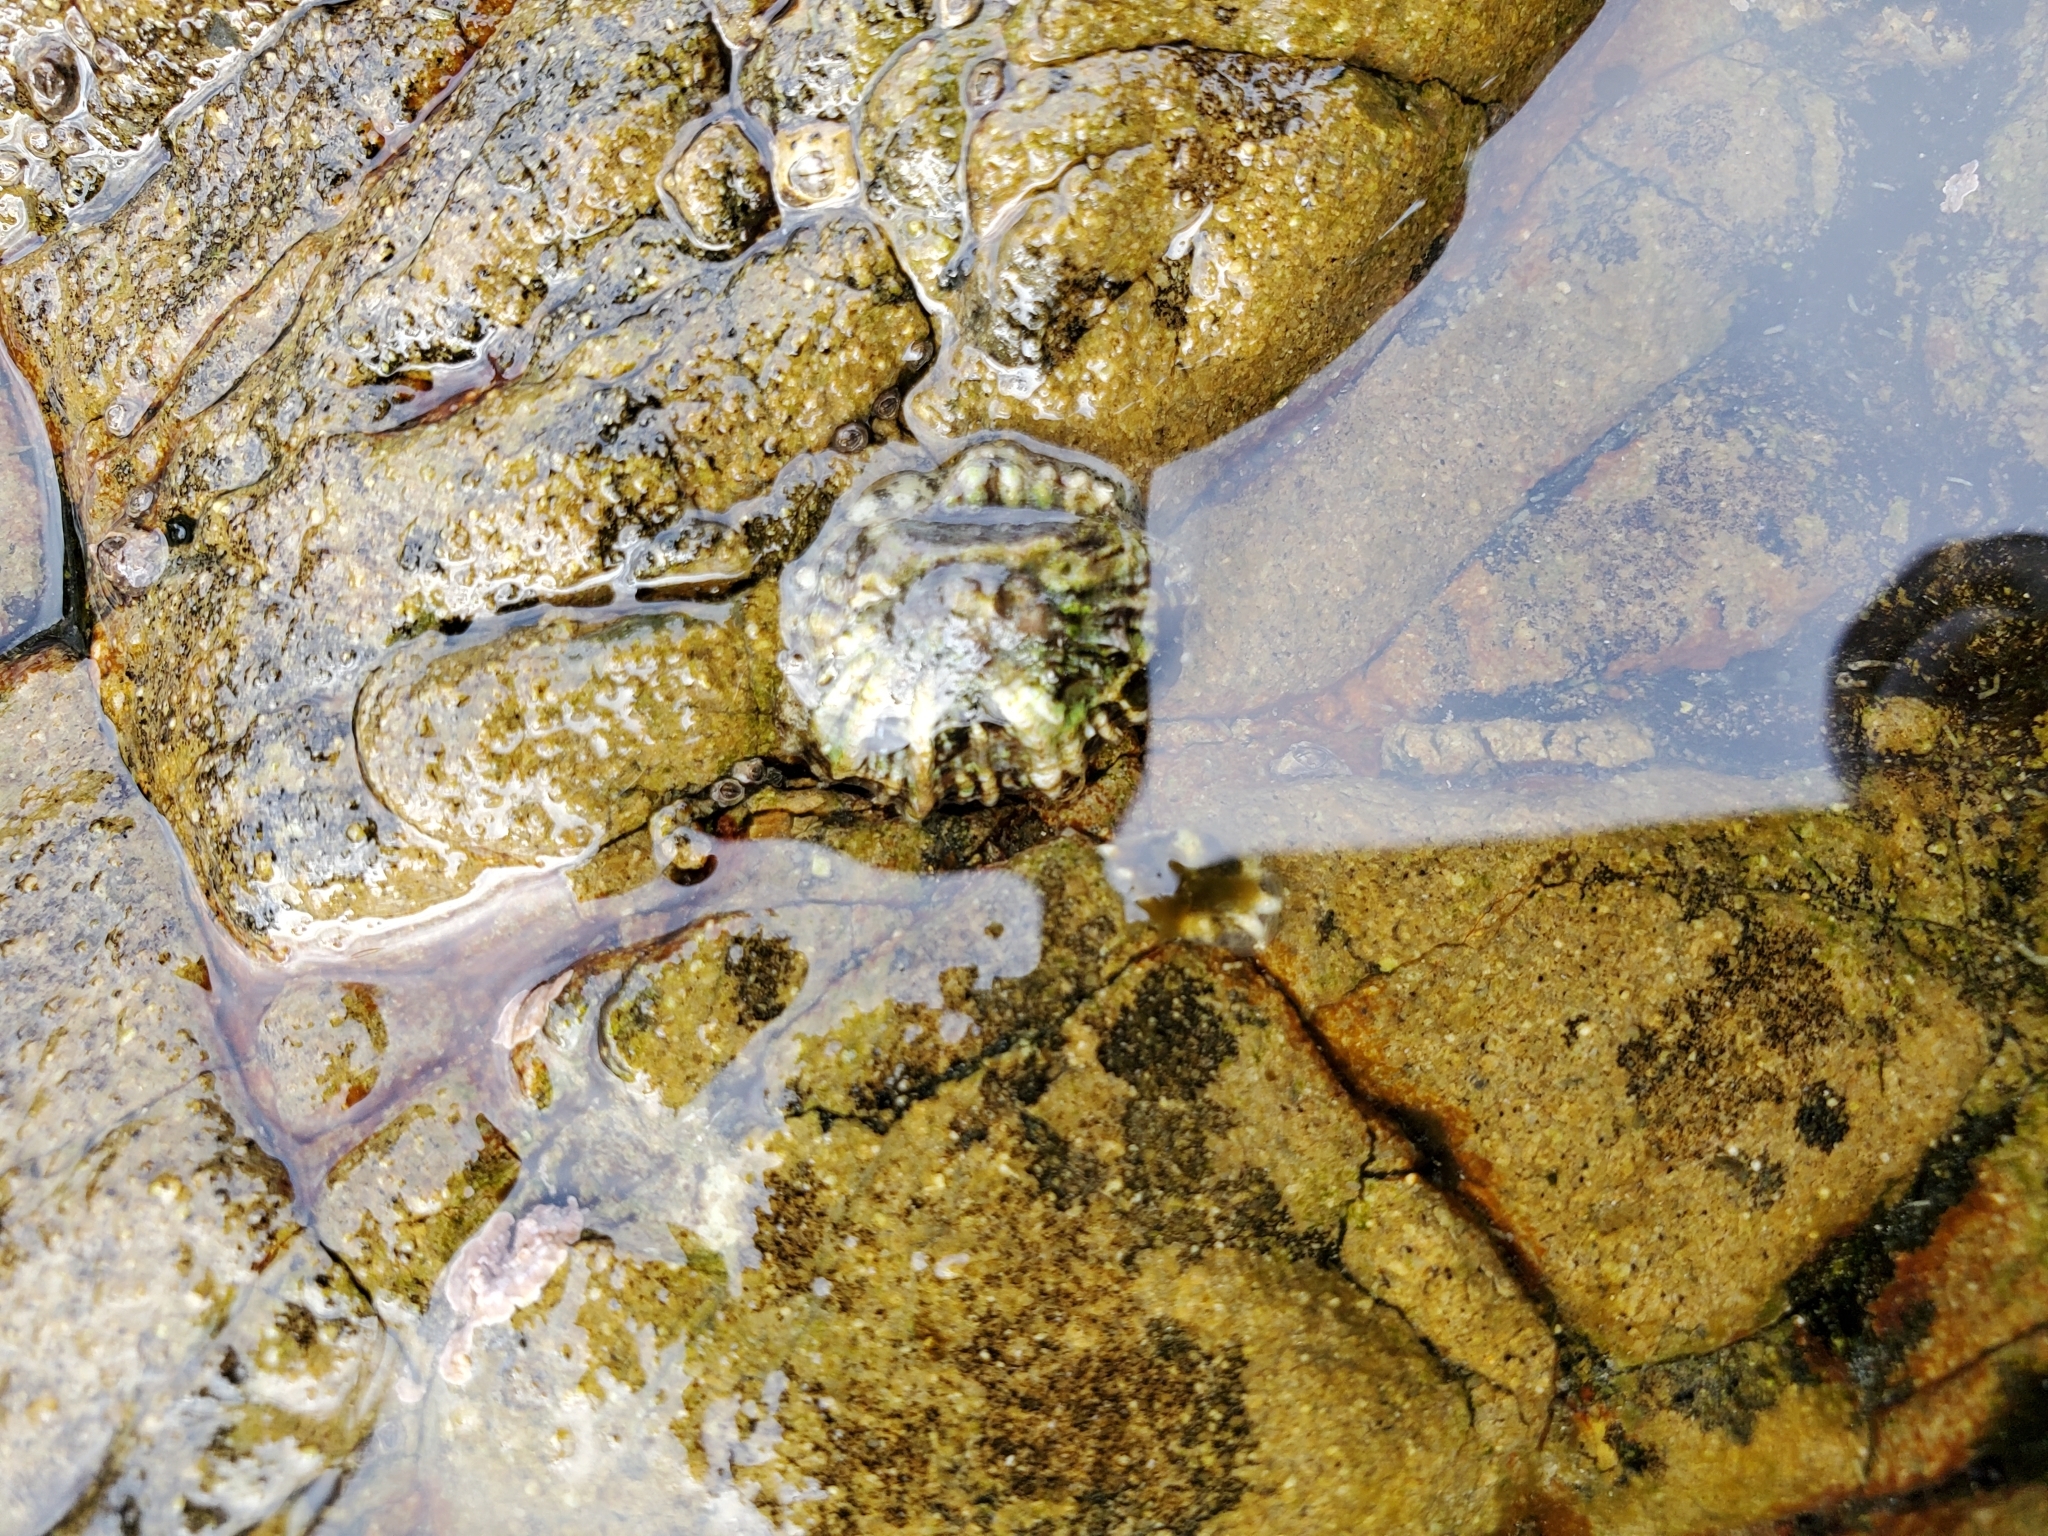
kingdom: Animalia
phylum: Mollusca
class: Gastropoda
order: Siphonariida
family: Siphonariidae
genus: Siphonaria
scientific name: Siphonaria australis
